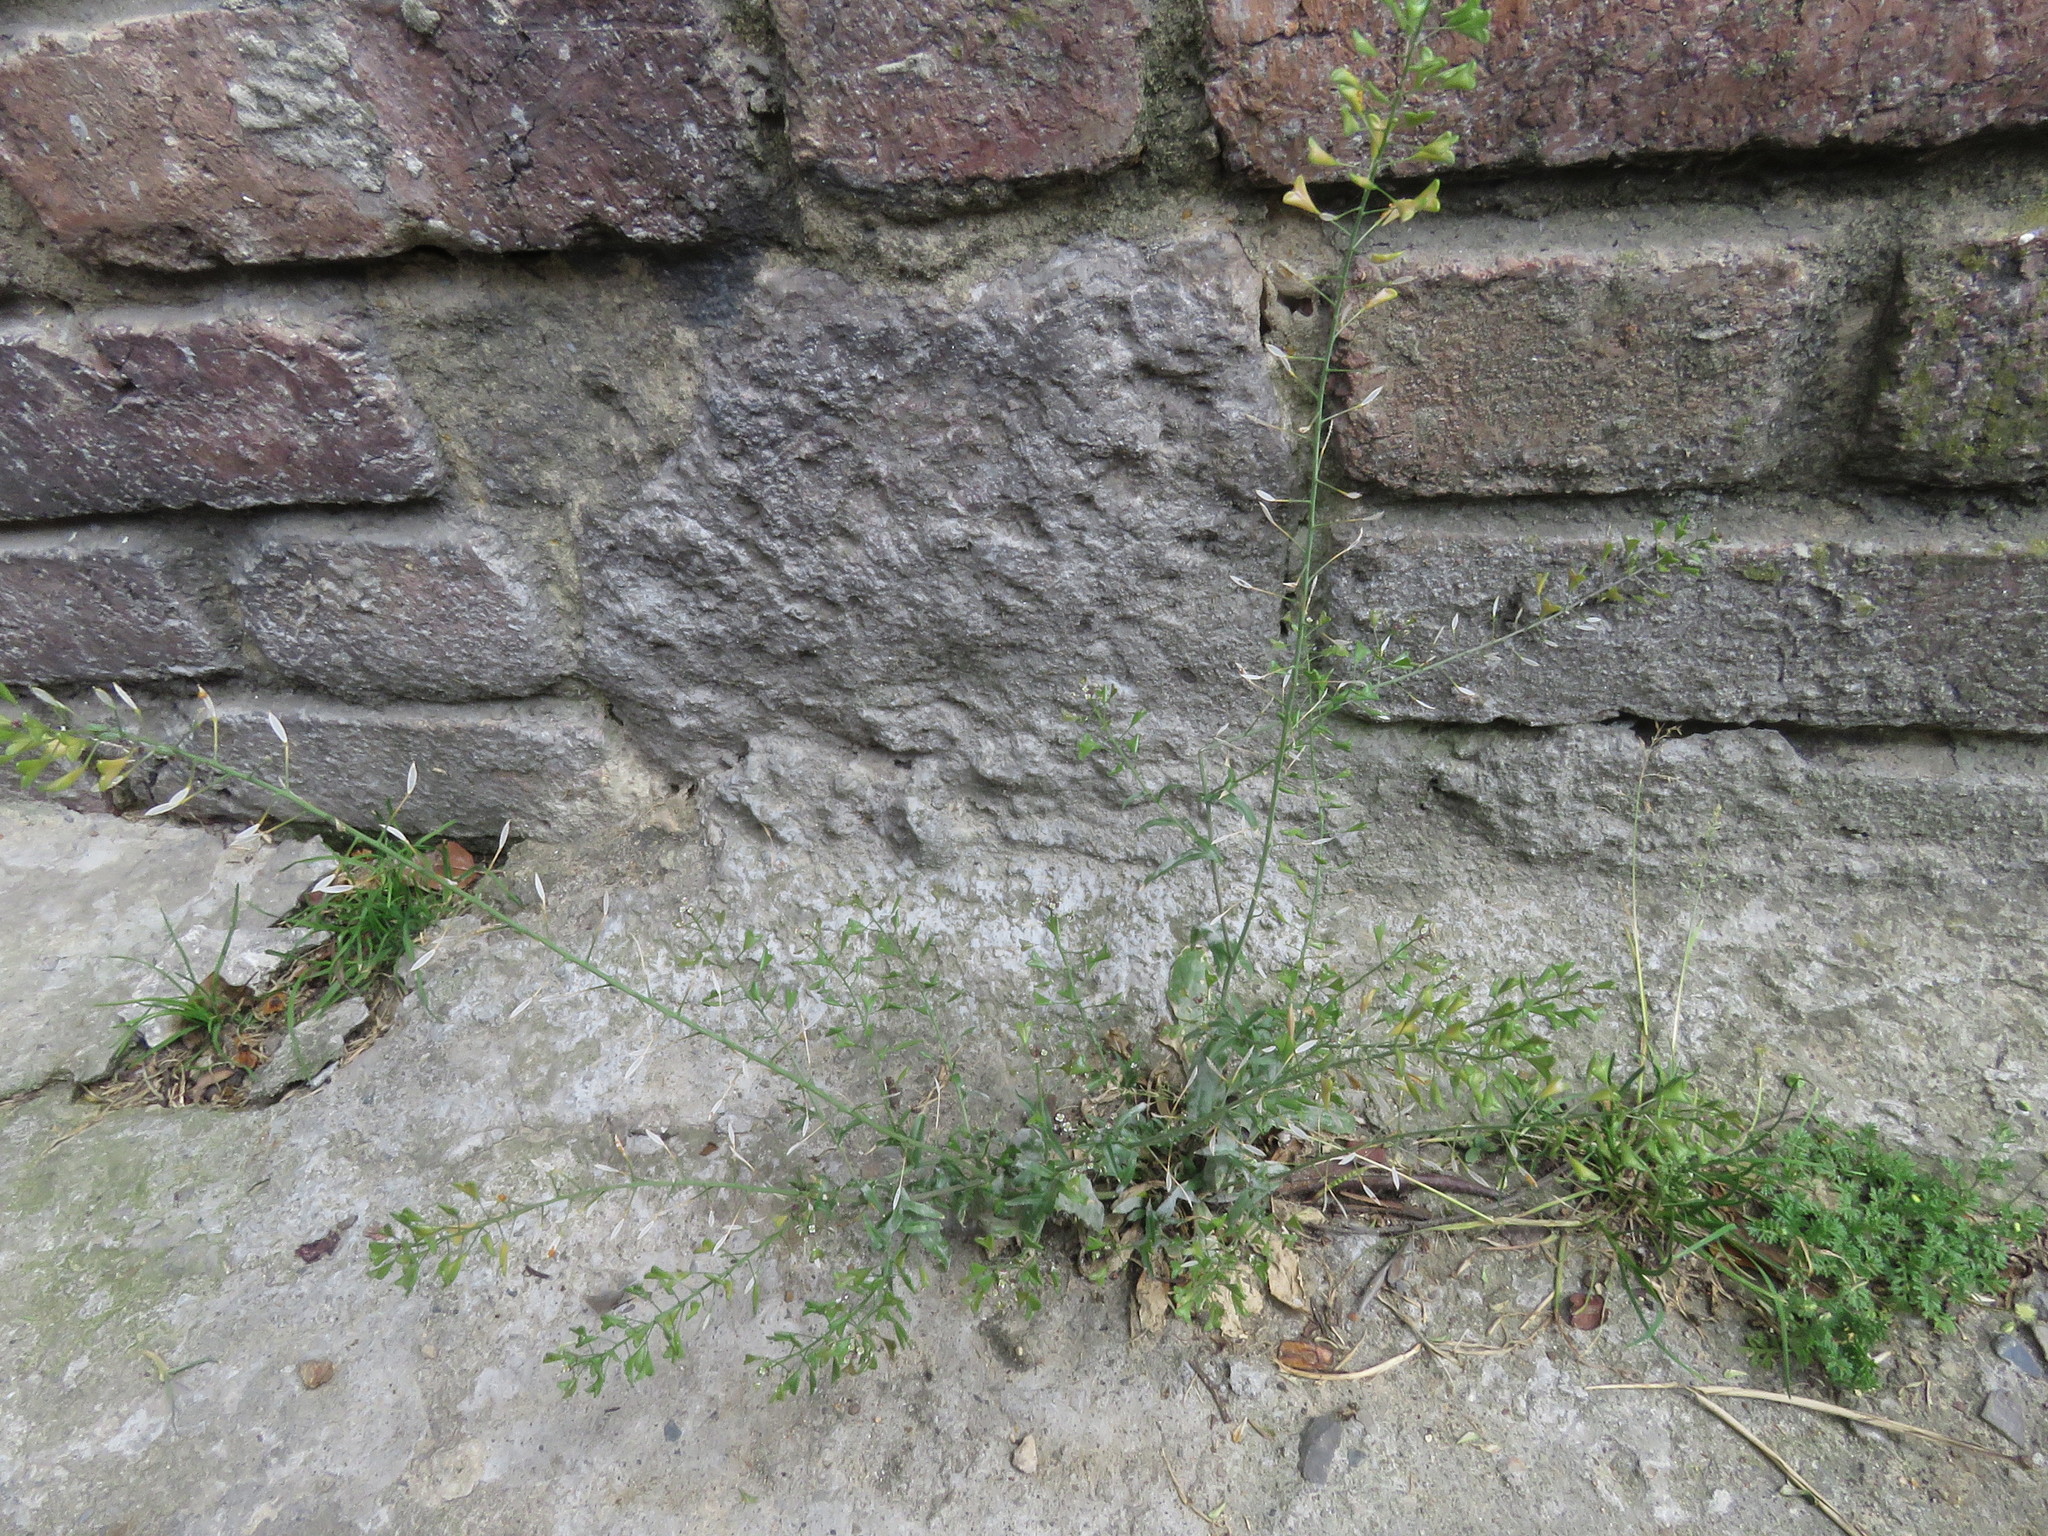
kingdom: Plantae
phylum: Tracheophyta
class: Magnoliopsida
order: Brassicales
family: Brassicaceae
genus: Capsella
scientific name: Capsella bursa-pastoris
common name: Shepherd's purse
